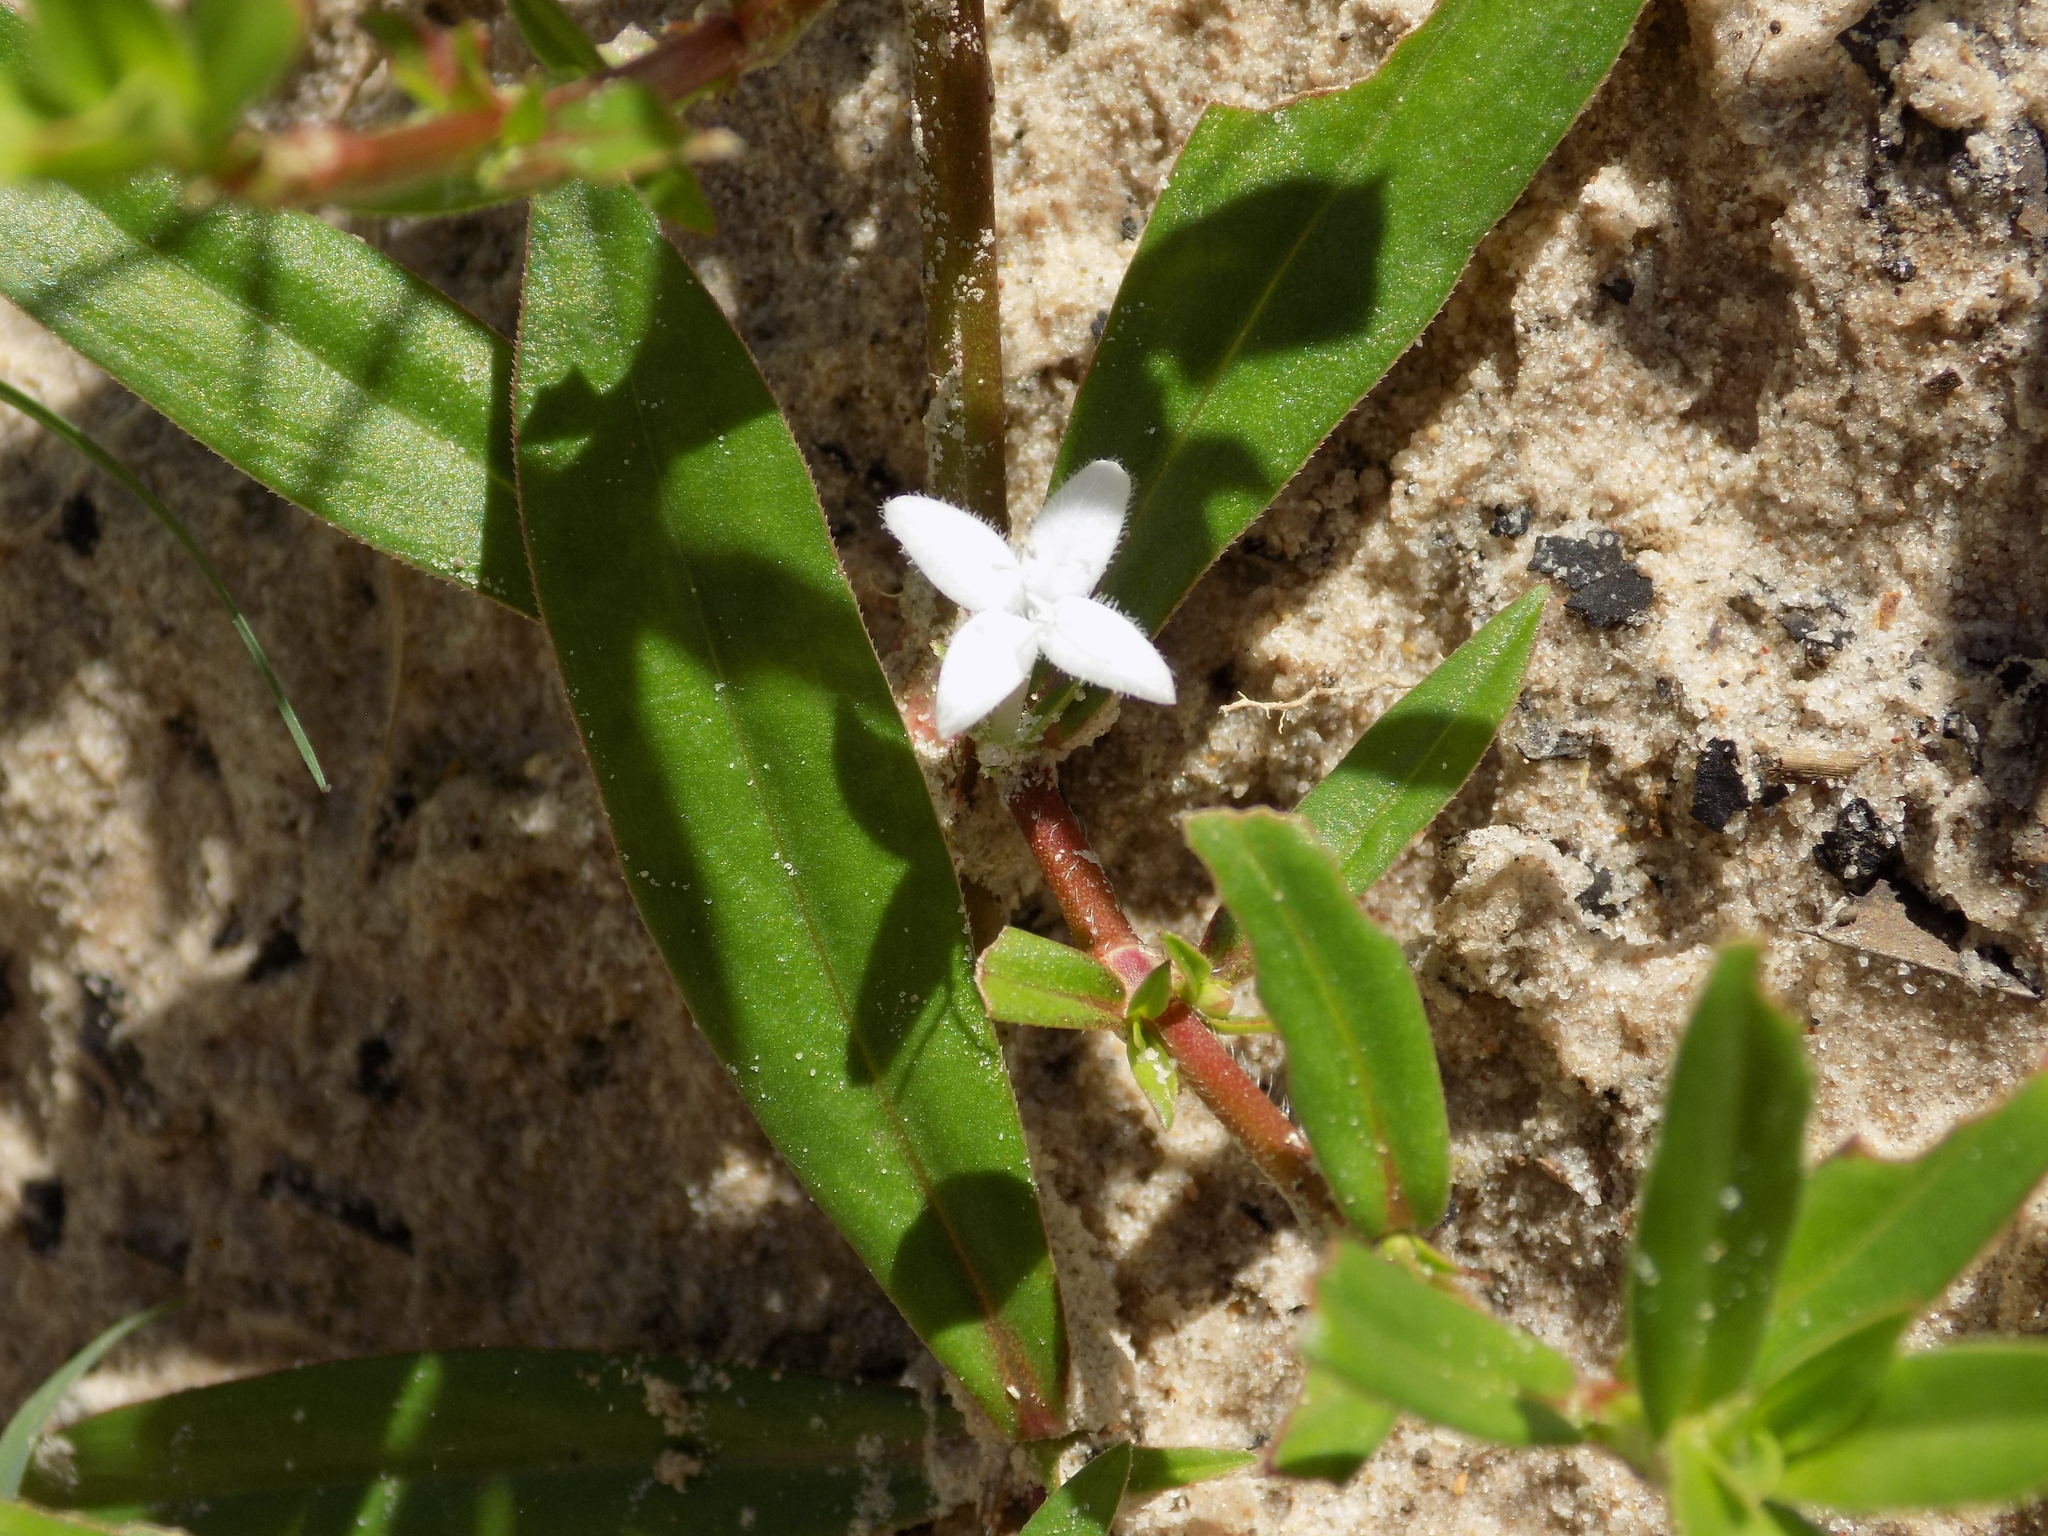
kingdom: Plantae
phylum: Tracheophyta
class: Magnoliopsida
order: Gentianales
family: Rubiaceae
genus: Diodia
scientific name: Diodia virginiana
